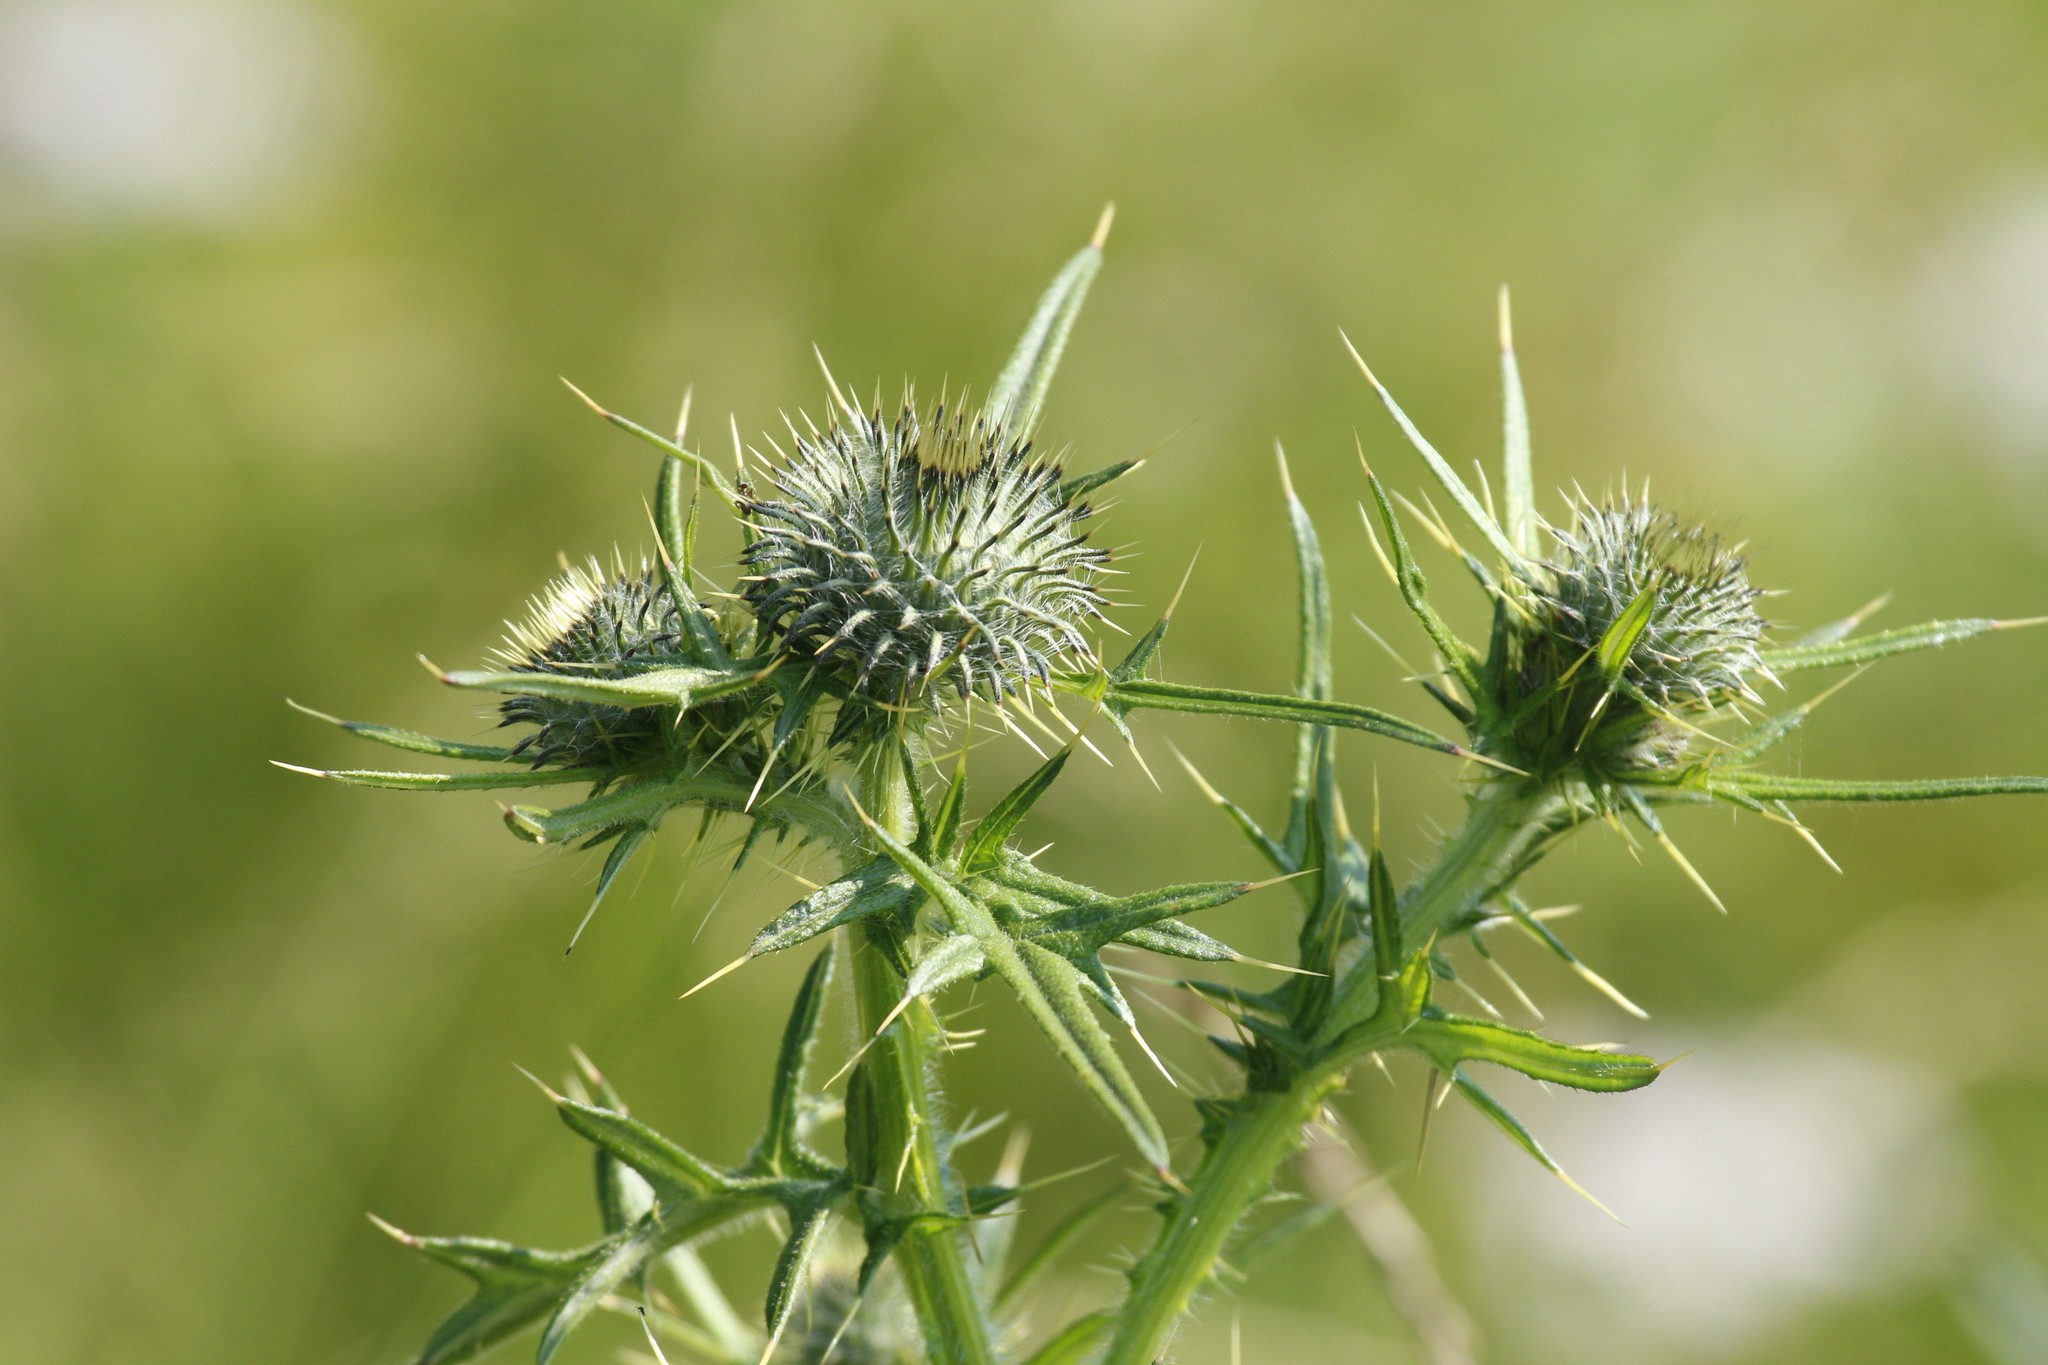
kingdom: Plantae
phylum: Tracheophyta
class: Magnoliopsida
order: Asterales
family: Asteraceae
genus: Cirsium
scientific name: Cirsium vulgare
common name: Bull thistle
